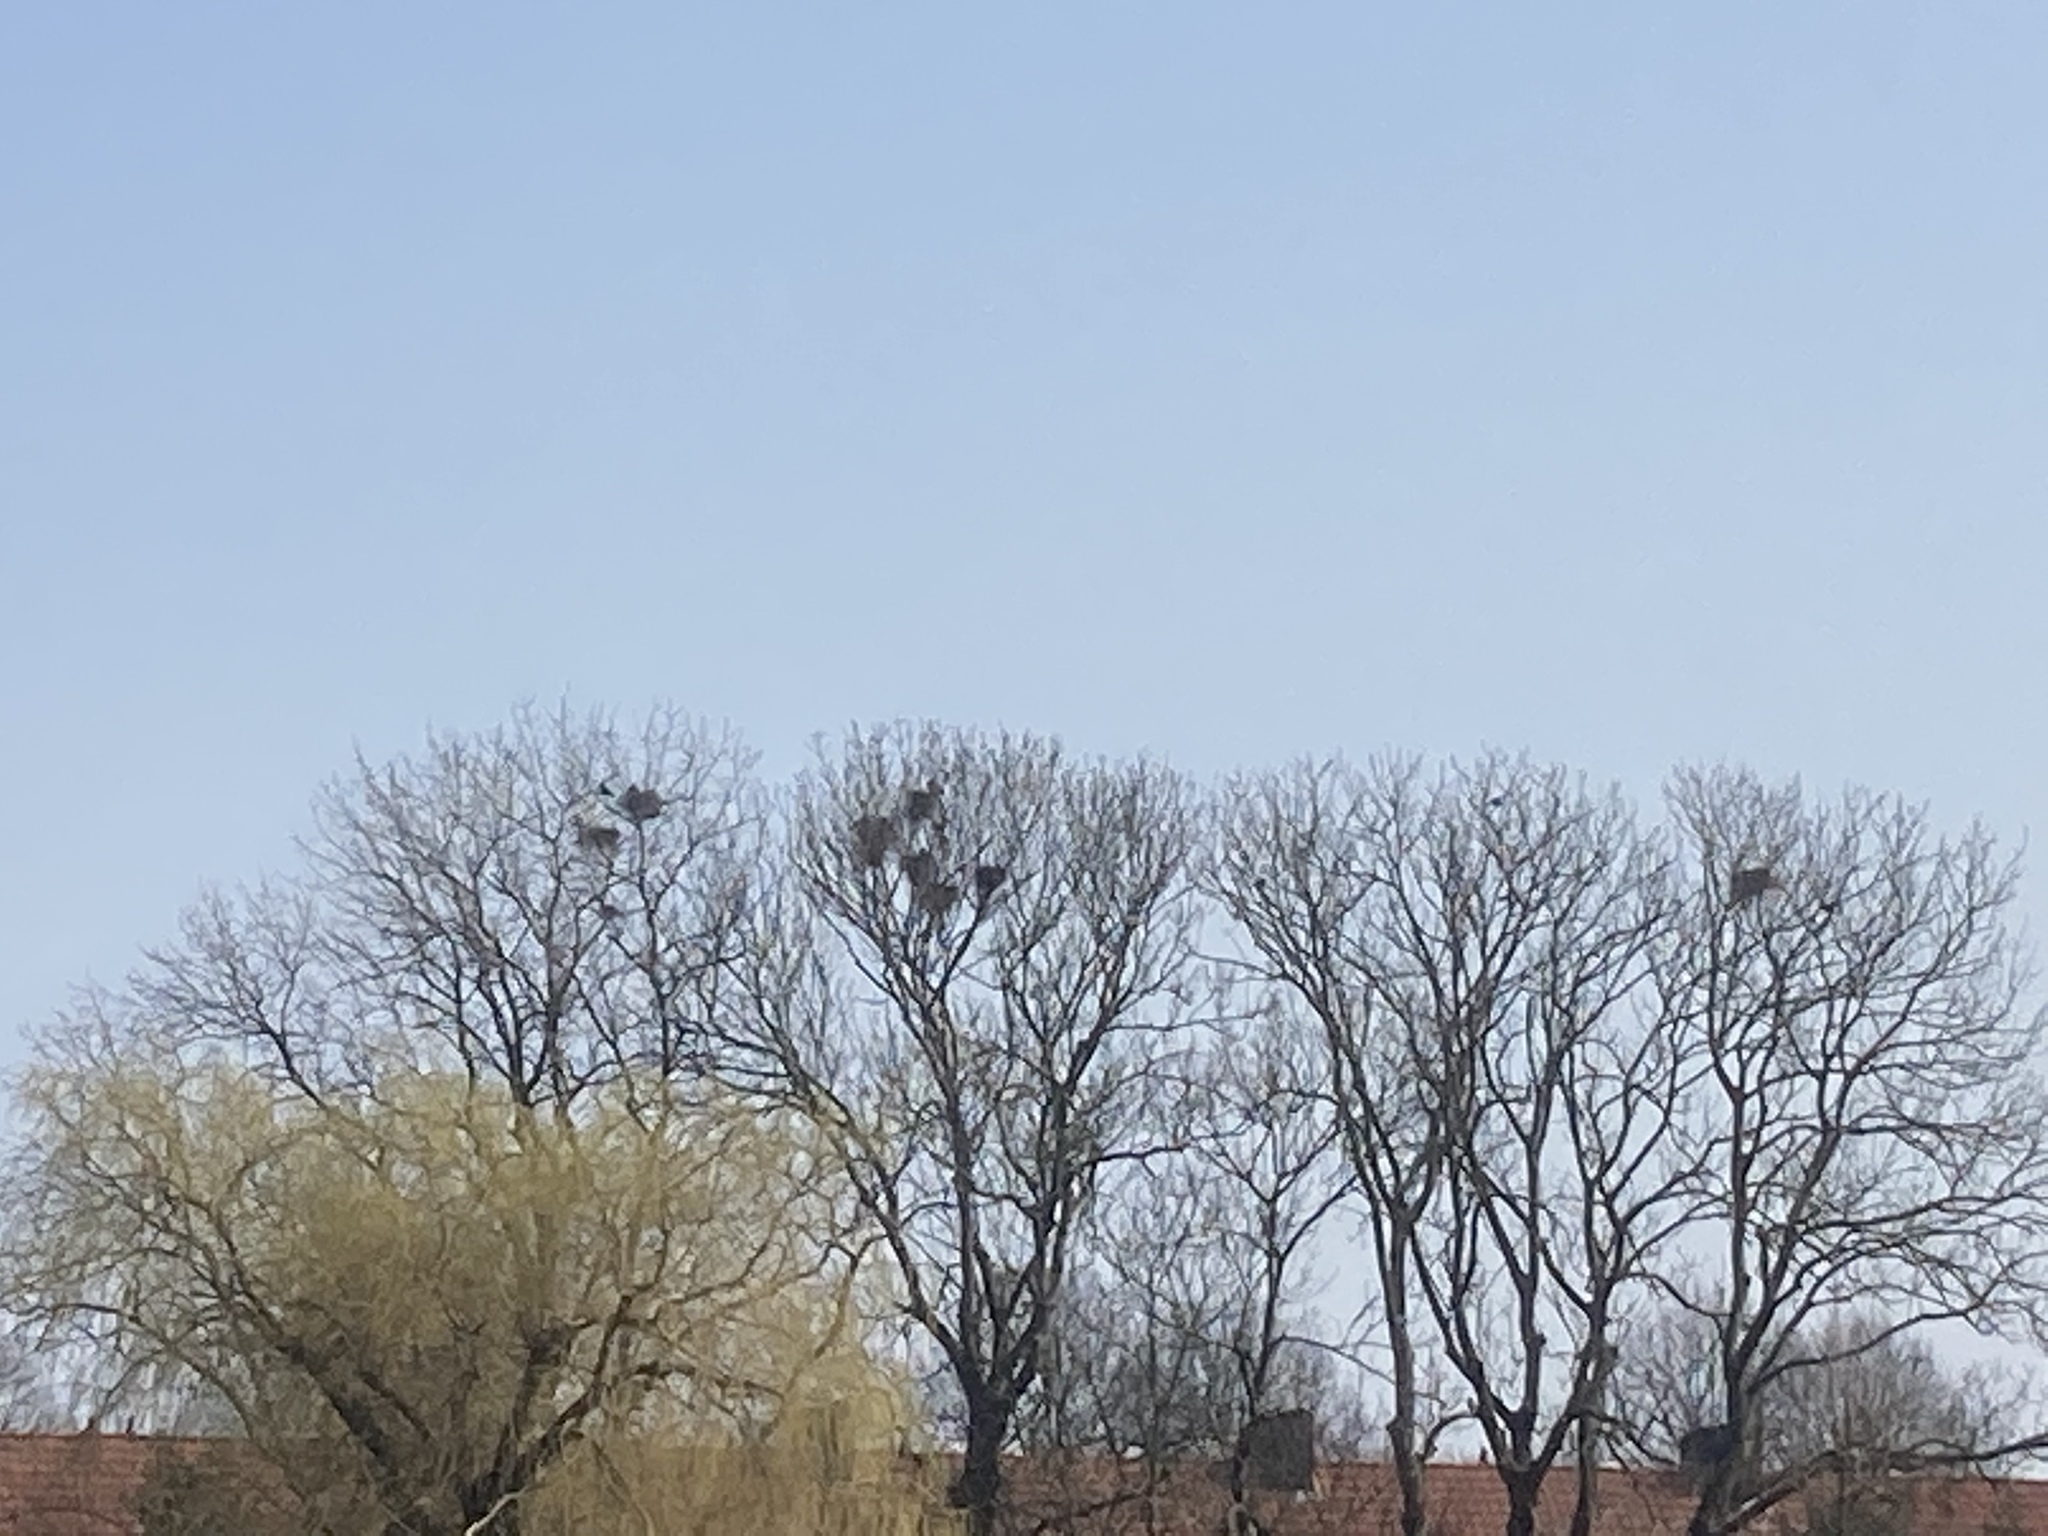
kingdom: Animalia
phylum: Chordata
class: Aves
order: Passeriformes
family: Corvidae
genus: Corvus
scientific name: Corvus frugilegus
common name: Rook
